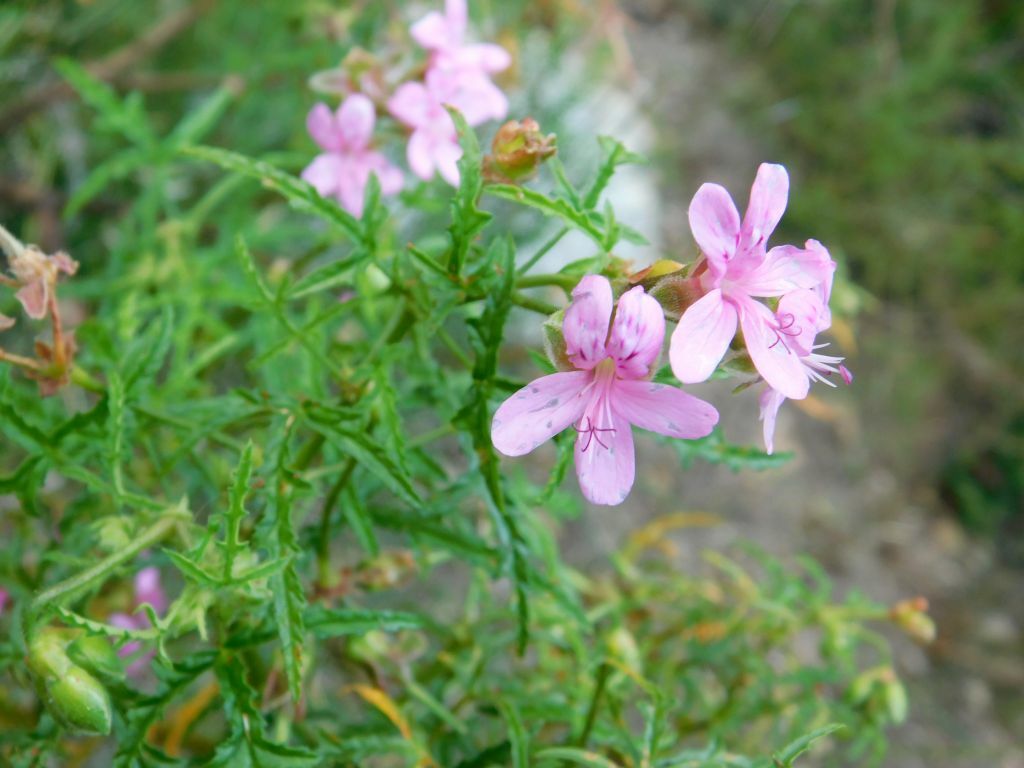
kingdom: Plantae
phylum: Tracheophyta
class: Magnoliopsida
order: Geraniales
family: Geraniaceae
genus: Pelargonium
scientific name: Pelargonium glutinosum
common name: Pheasant-foot geranium
